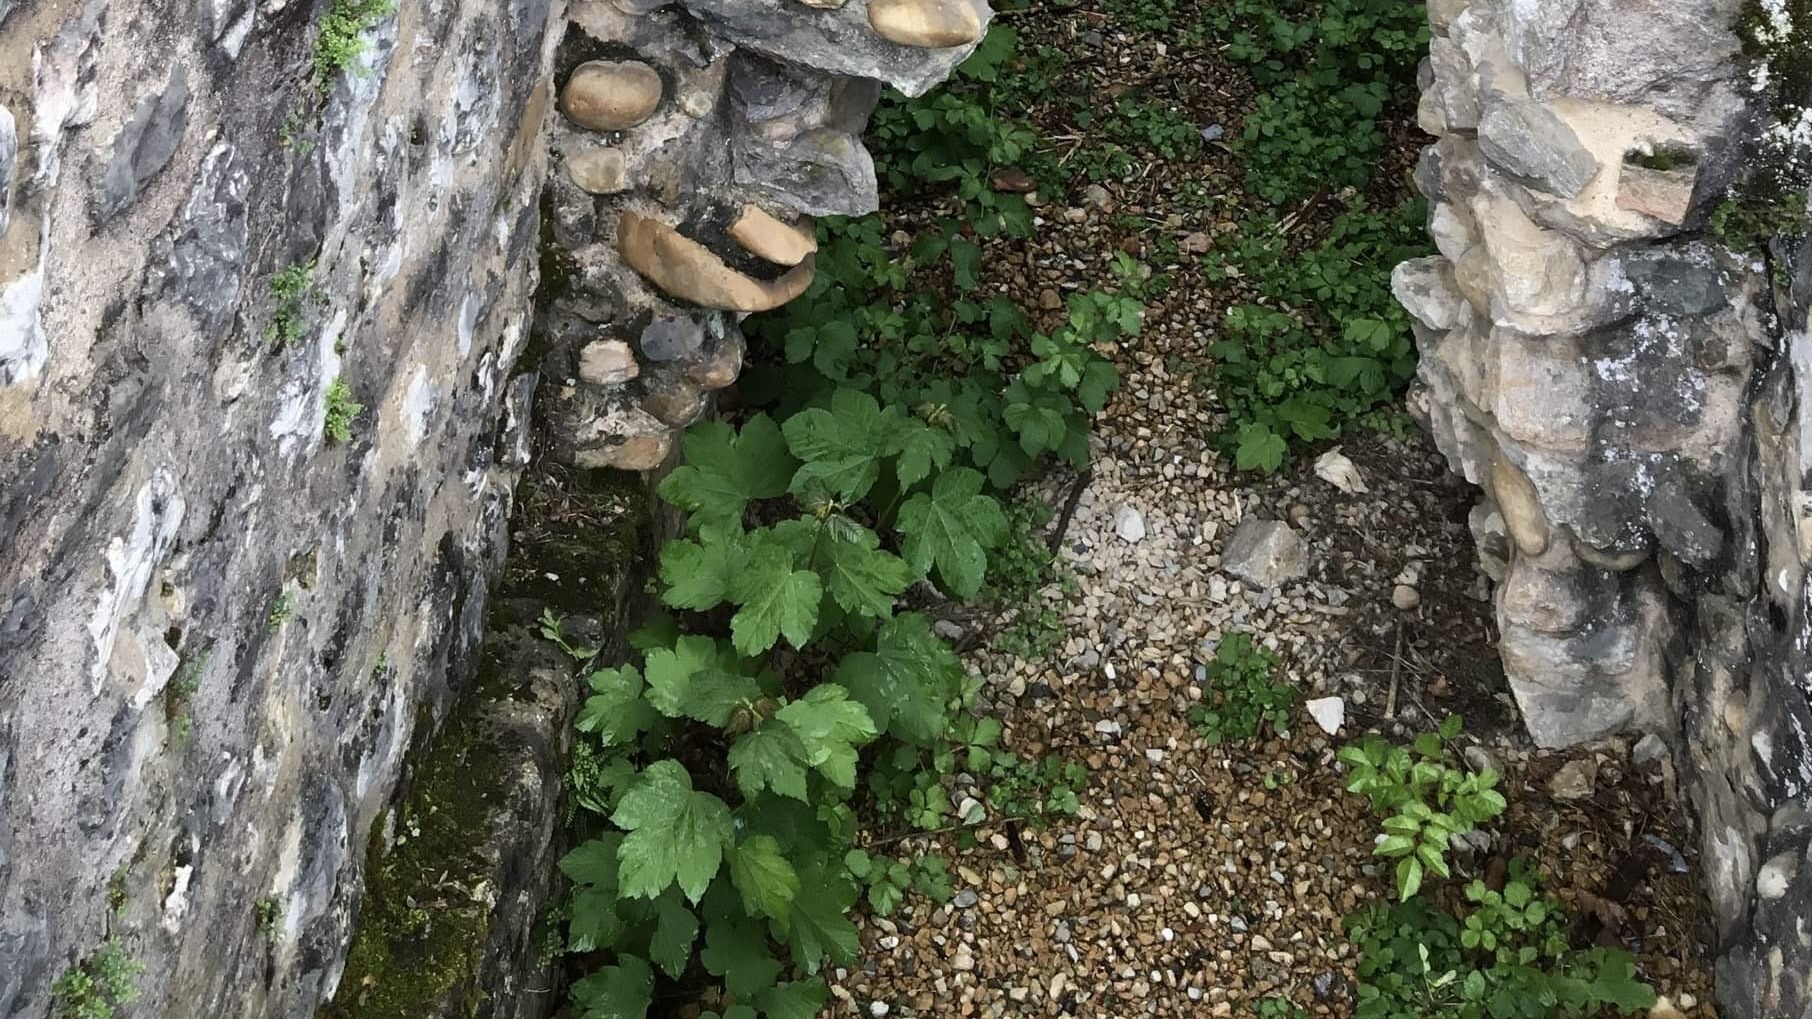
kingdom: Plantae
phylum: Tracheophyta
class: Magnoliopsida
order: Vitales
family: Vitaceae
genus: Vitis
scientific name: Vitis vinifera
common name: Grape-vine
